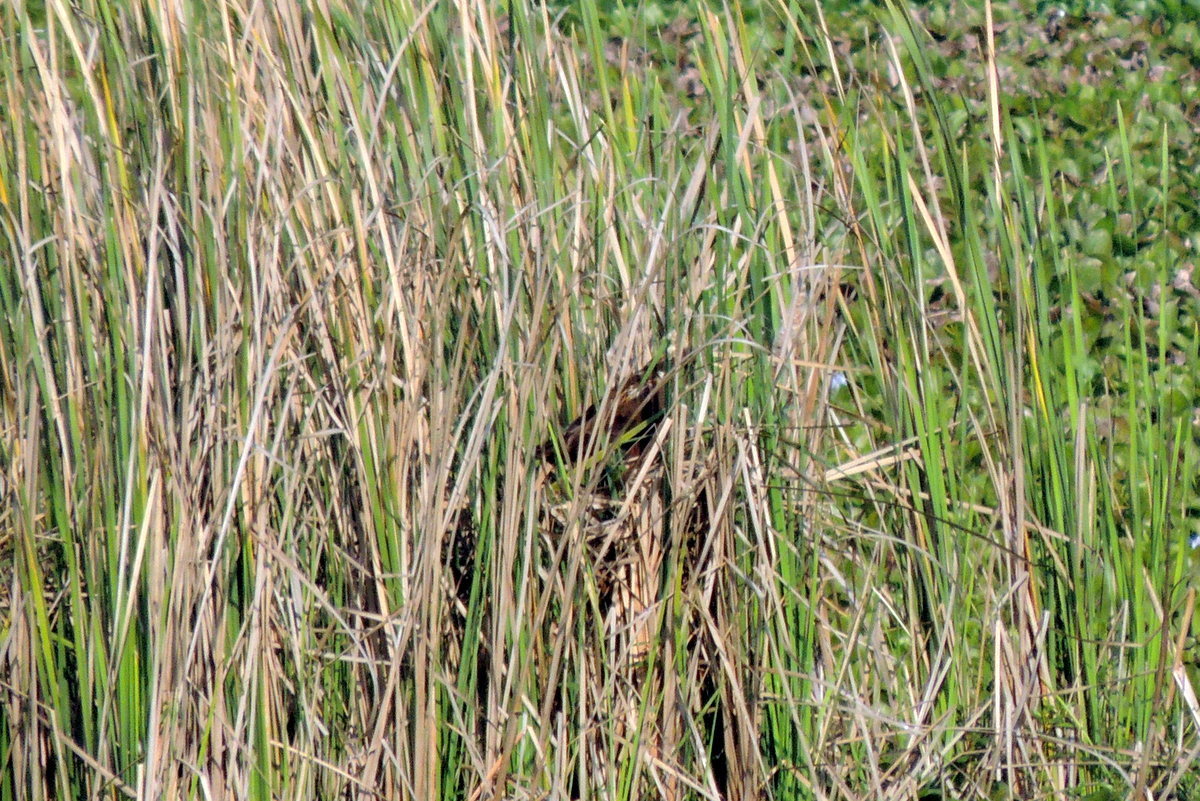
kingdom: Animalia
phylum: Chordata
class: Aves
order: Accipitriformes
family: Accipitridae
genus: Circus
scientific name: Circus aeruginosus
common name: Western marsh harrier
